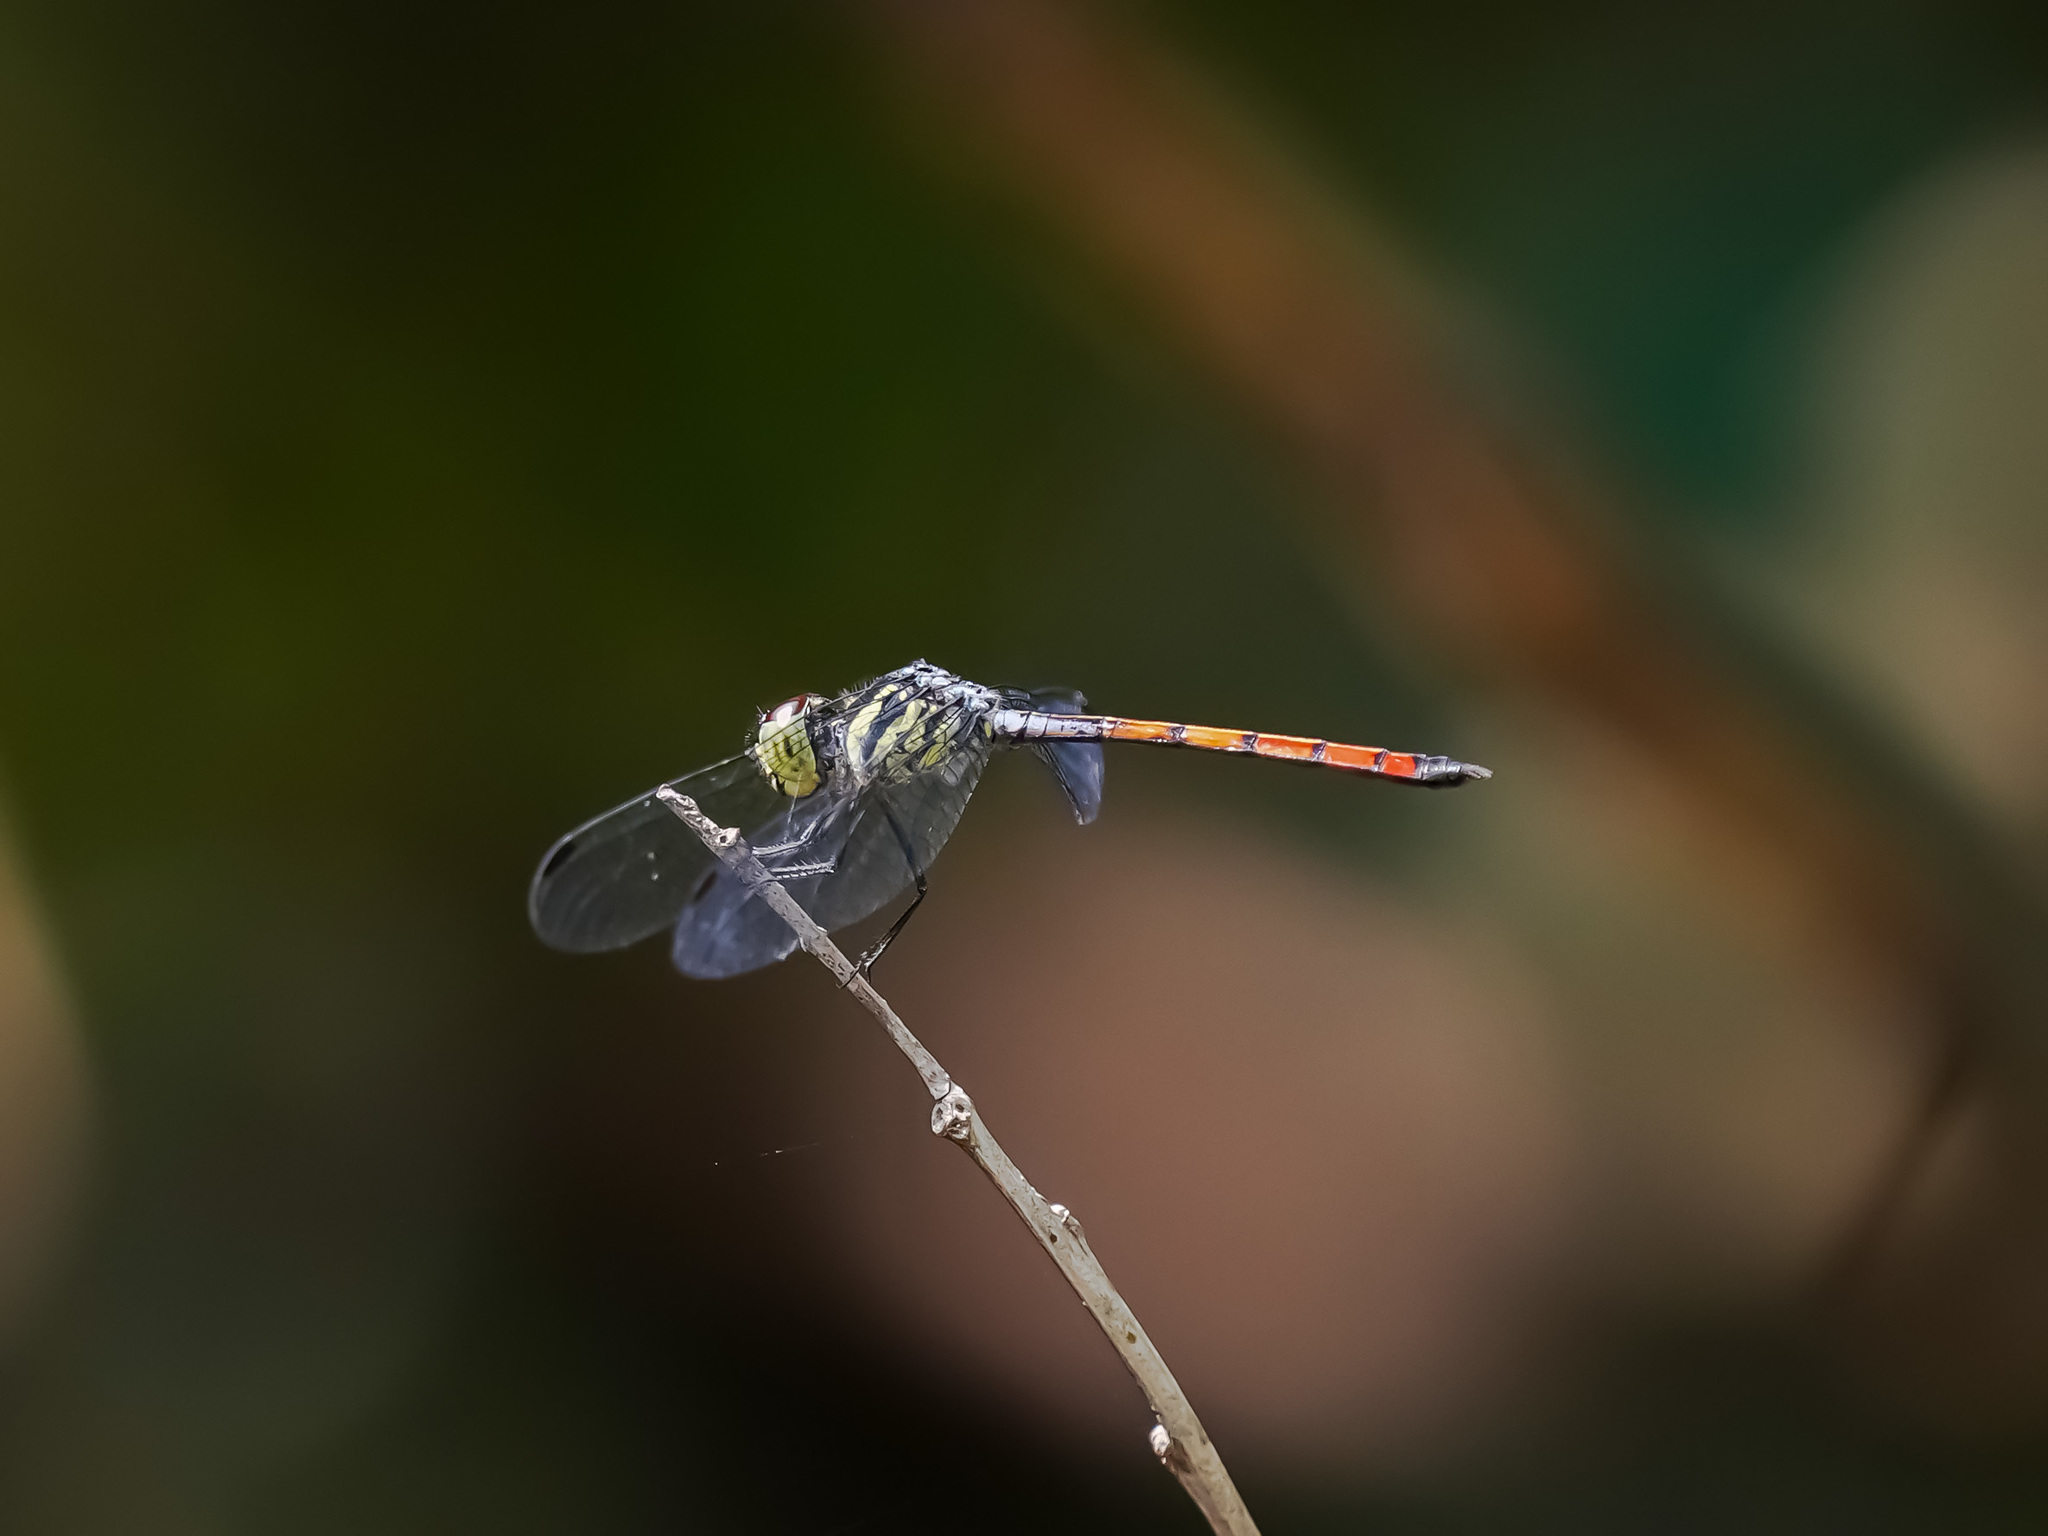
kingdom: Animalia
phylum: Arthropoda
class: Insecta
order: Odonata
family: Libellulidae
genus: Nesoxenia
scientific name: Nesoxenia lineata
